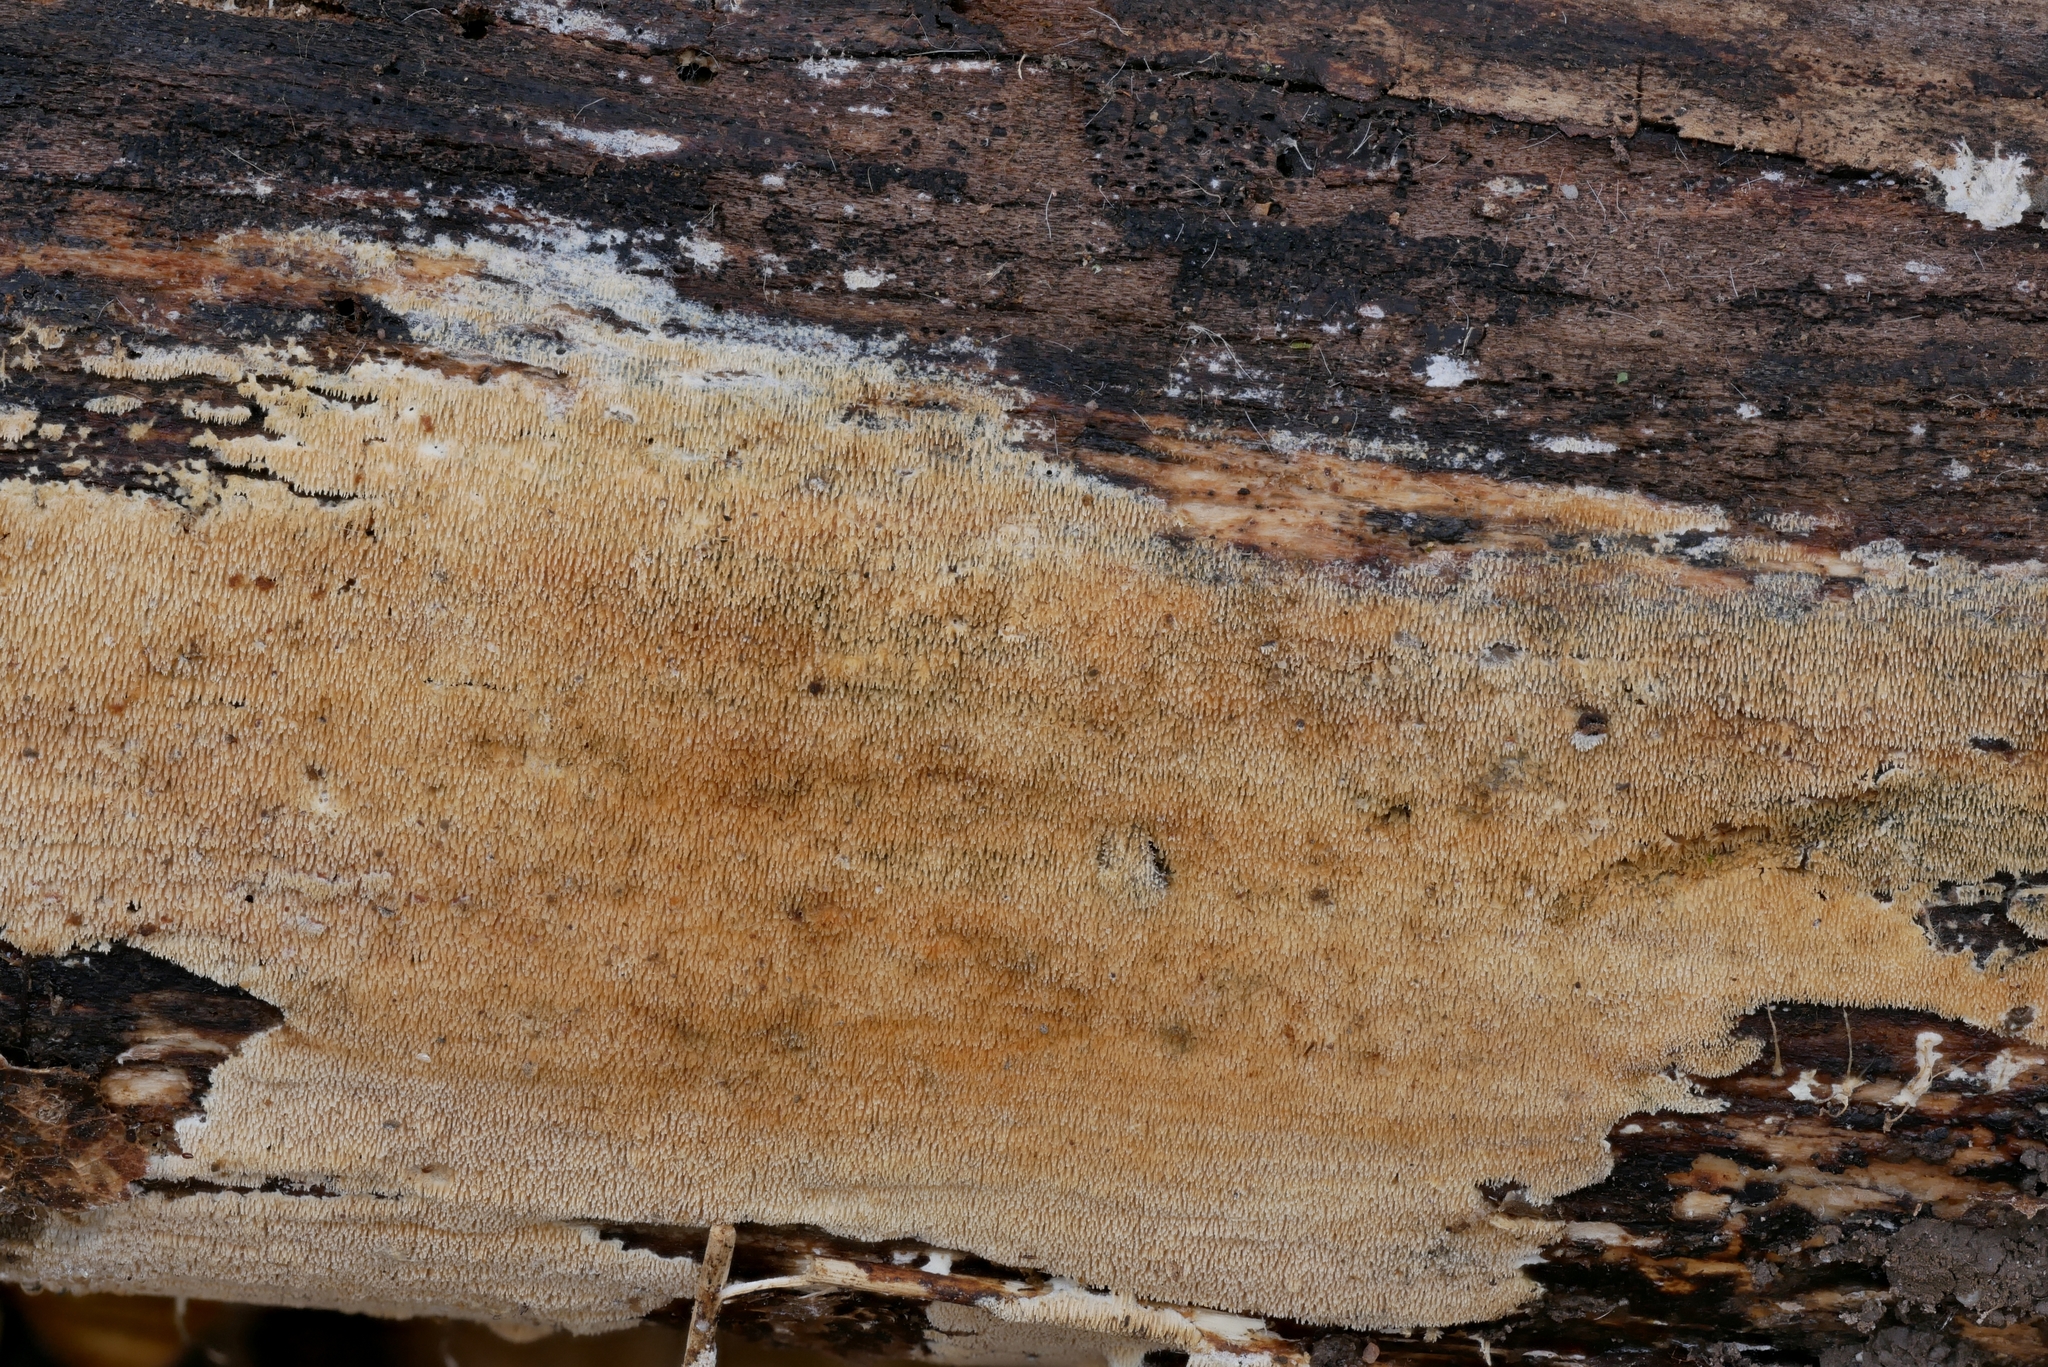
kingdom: Fungi
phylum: Basidiomycota
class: Agaricomycetes
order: Polyporales
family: Steccherinaceae
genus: Steccherinum
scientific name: Steccherinum tenue
